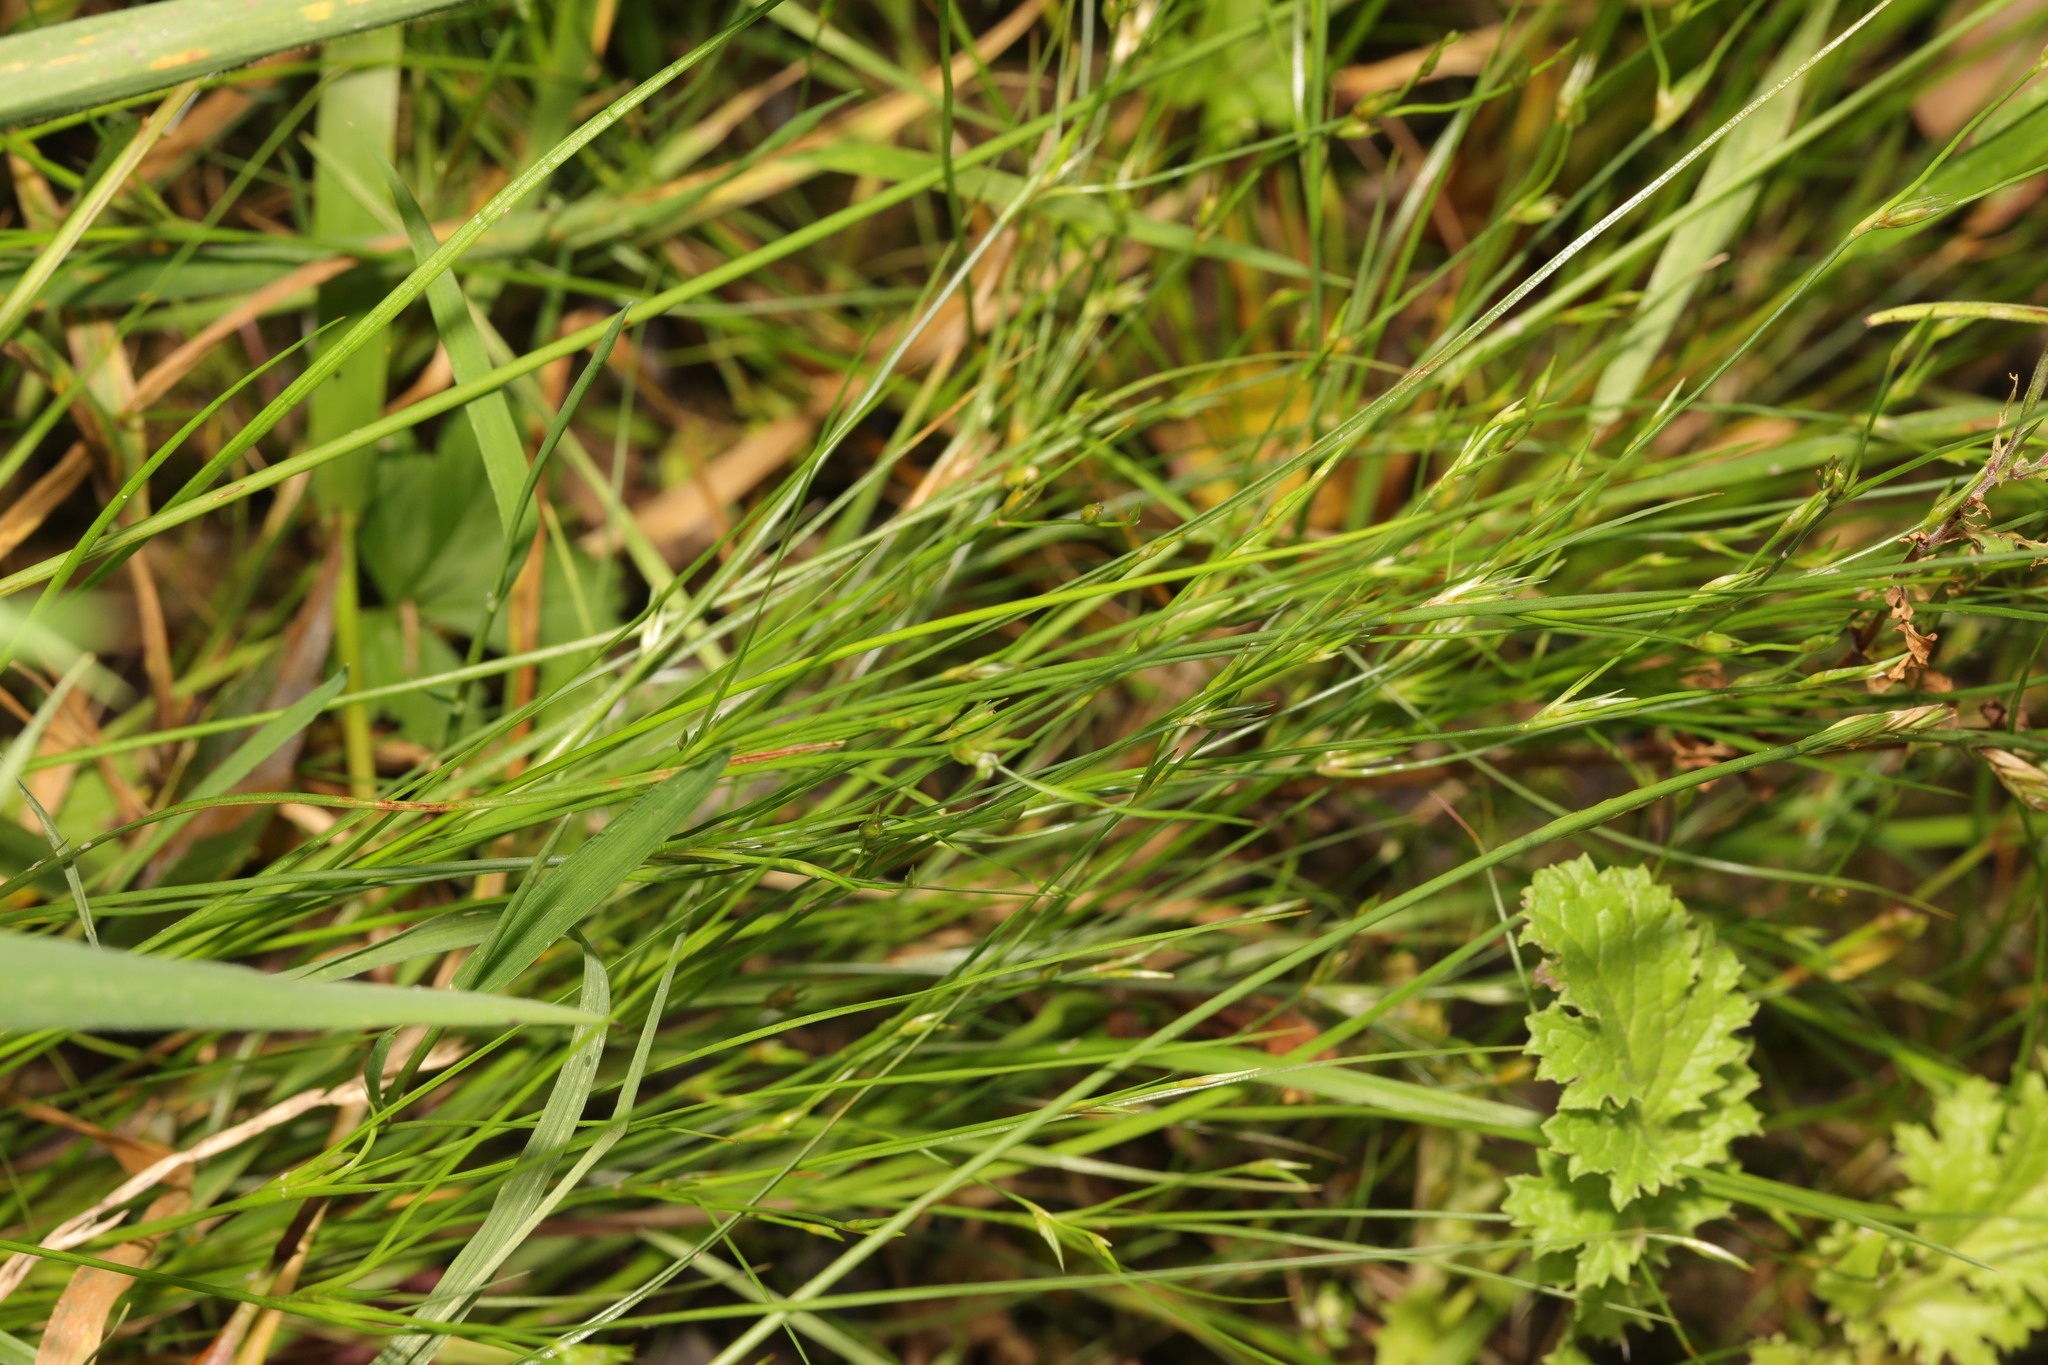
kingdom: Plantae
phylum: Tracheophyta
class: Liliopsida
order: Poales
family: Juncaceae
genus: Juncus
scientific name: Juncus bufonius
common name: Toad rush
